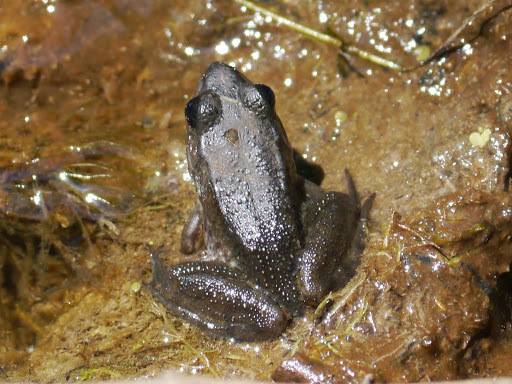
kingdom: Animalia
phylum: Chordata
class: Amphibia
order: Anura
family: Ranidae
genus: Lithobates
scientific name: Lithobates clamitans
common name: Green frog
